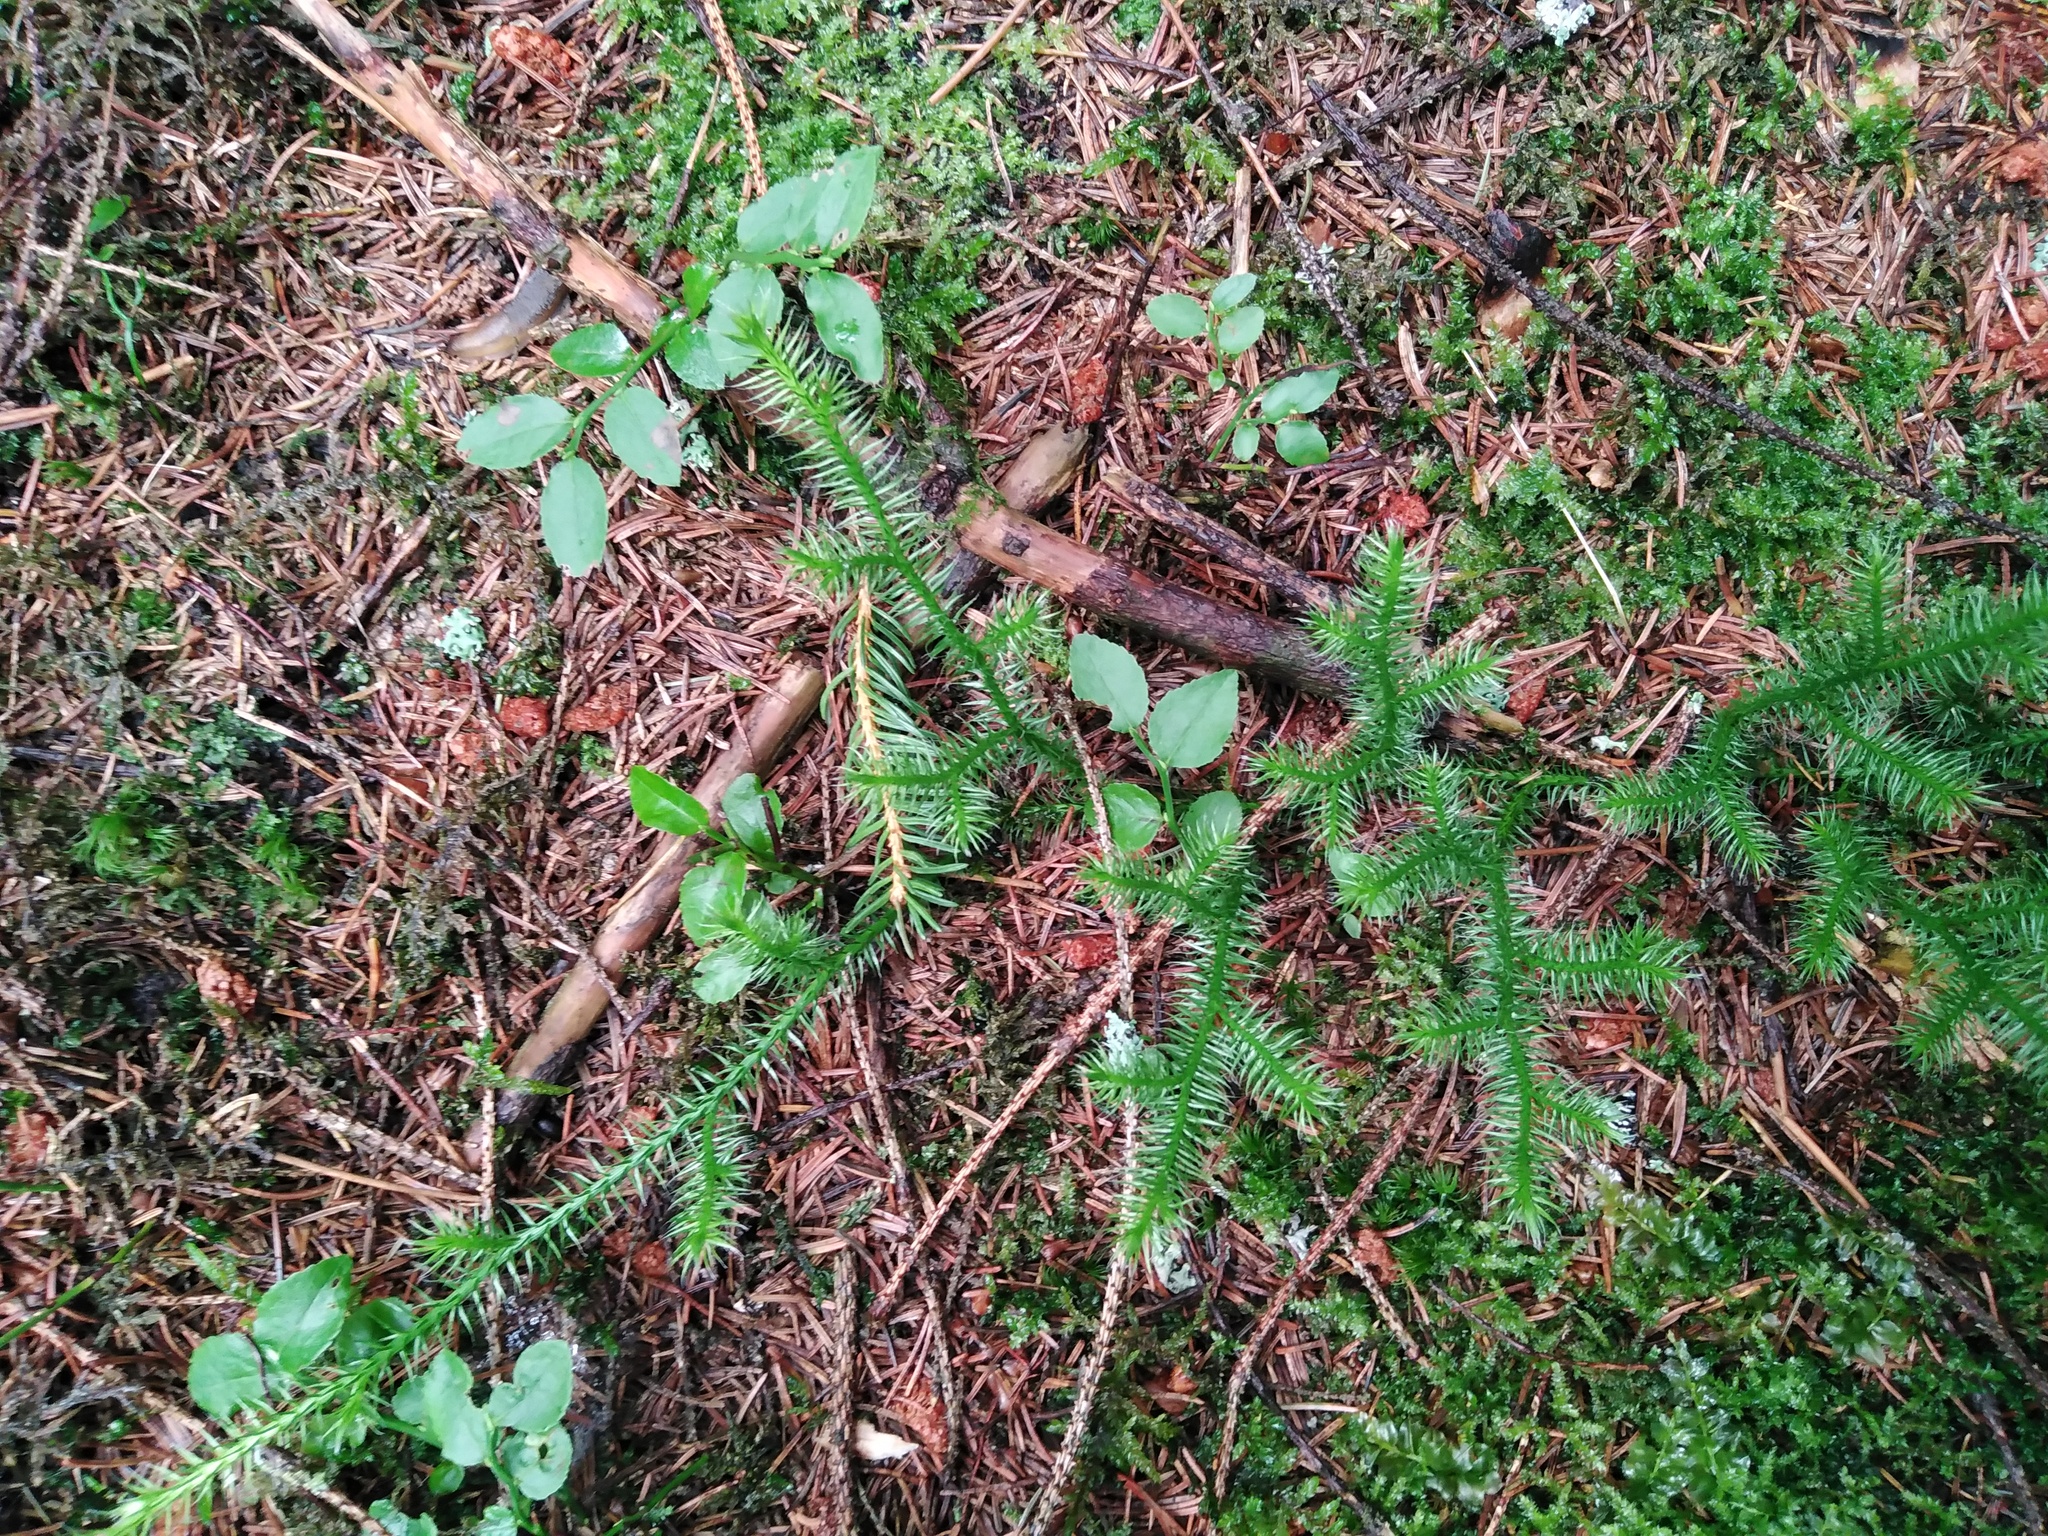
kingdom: Plantae
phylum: Tracheophyta
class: Lycopodiopsida
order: Lycopodiales
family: Lycopodiaceae
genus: Lycopodium
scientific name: Lycopodium clavatum
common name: Stag's-horn clubmoss
